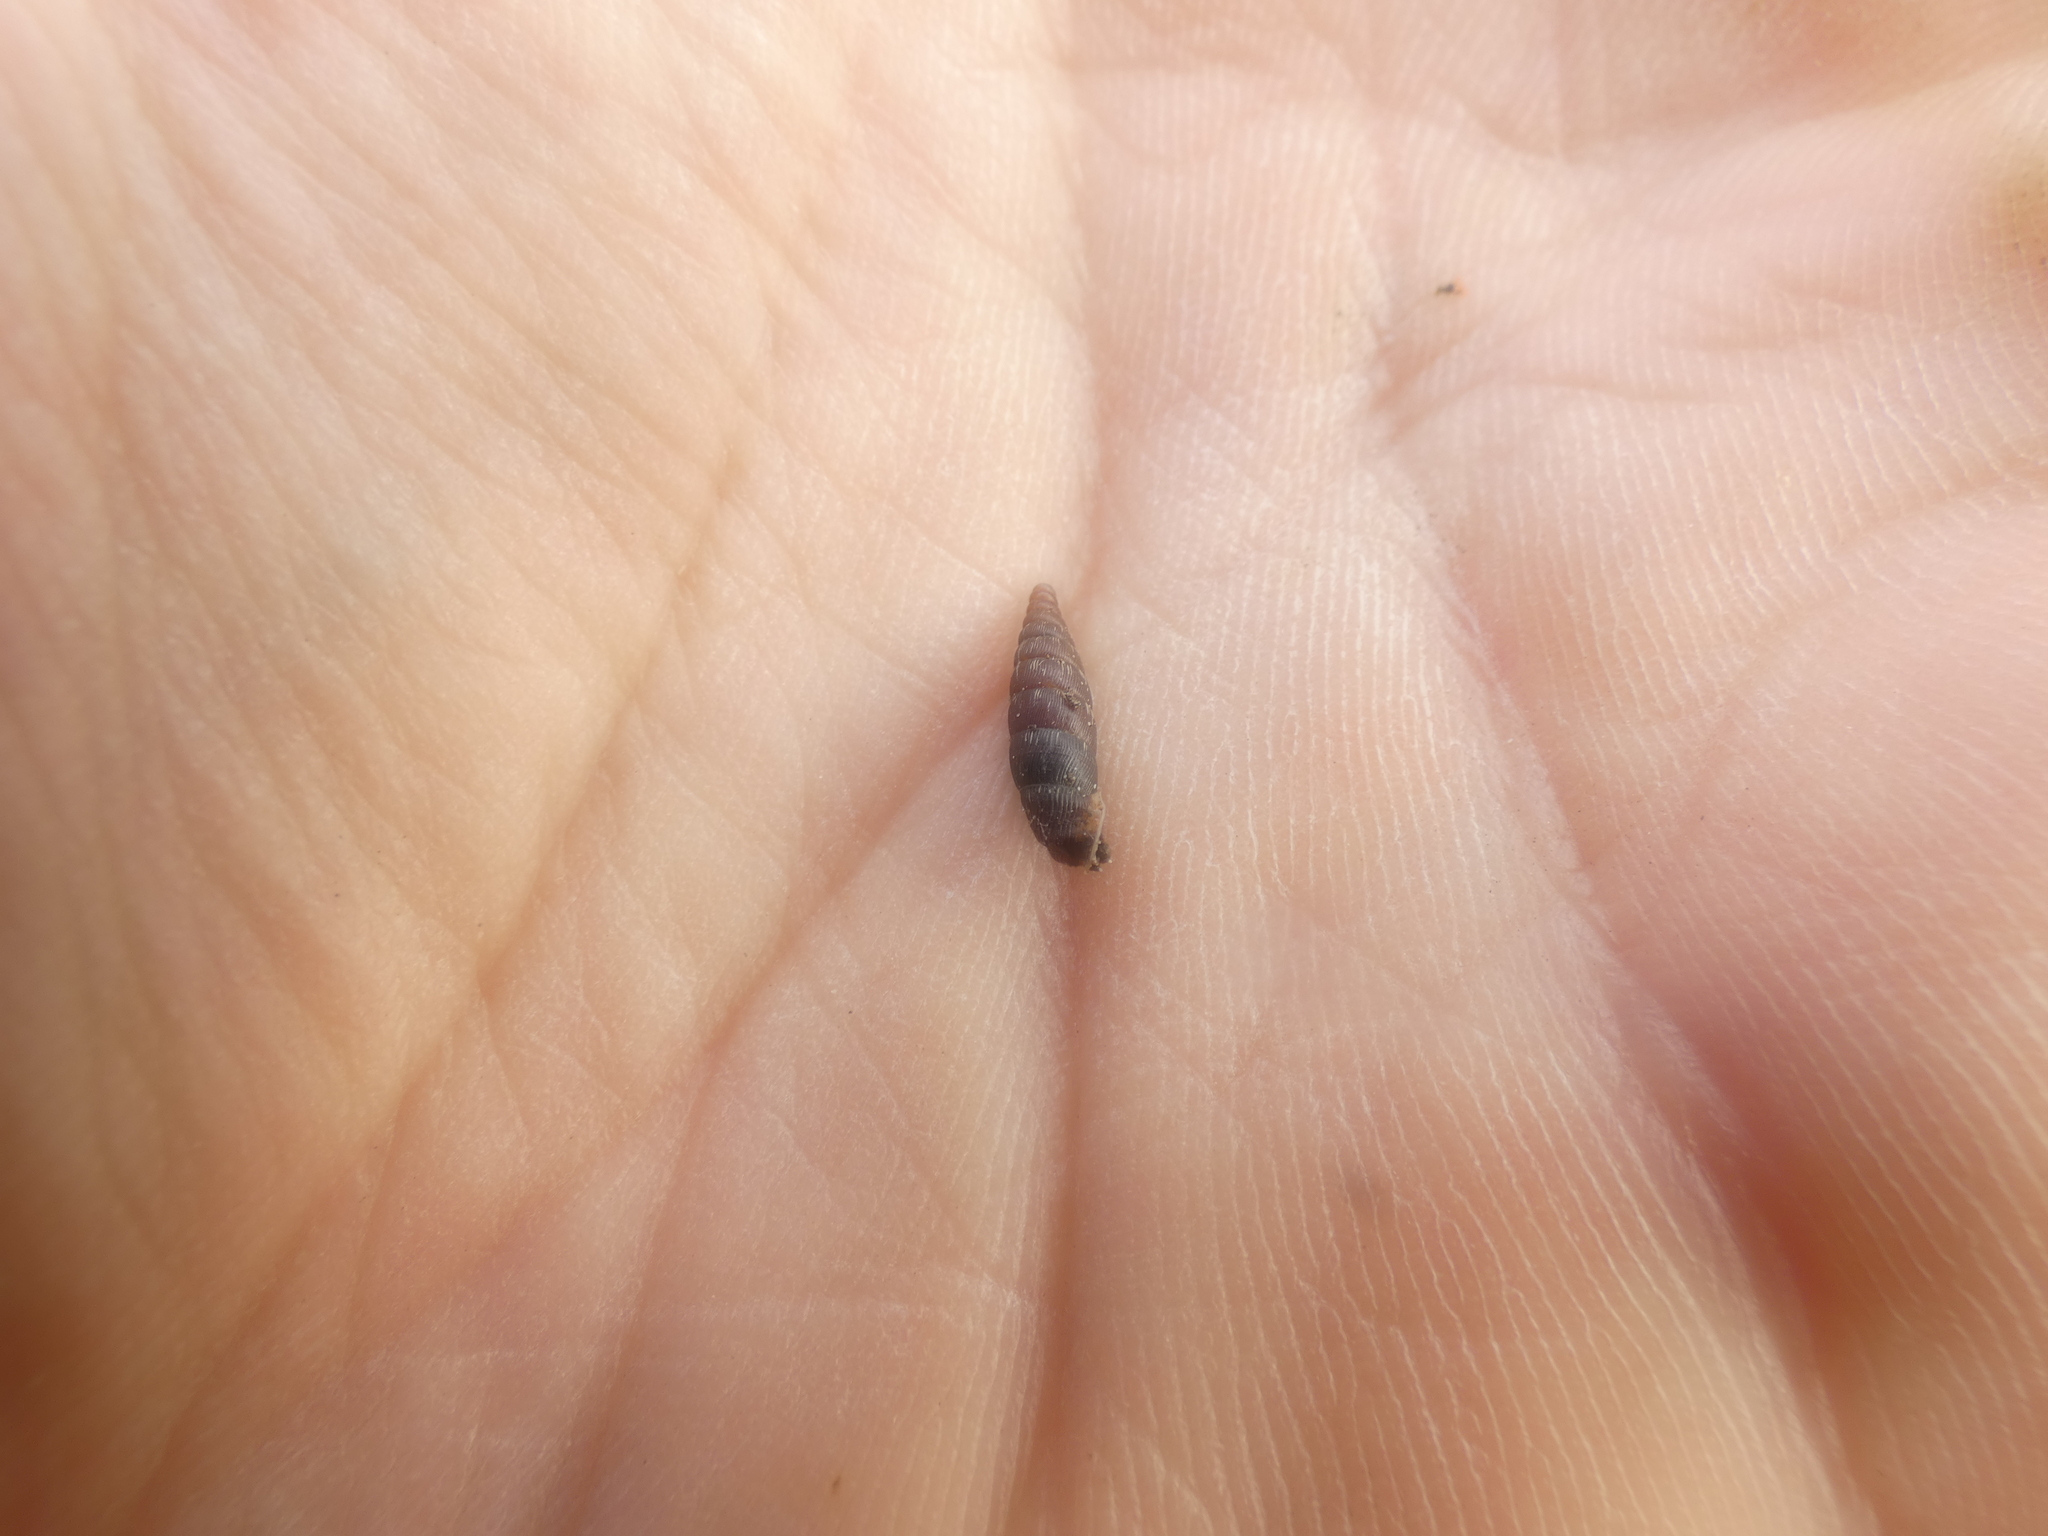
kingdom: Animalia
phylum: Mollusca
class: Gastropoda
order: Stylommatophora
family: Clausiliidae
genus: Clausilia
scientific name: Clausilia bidentata
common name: Two-toothed door snail
